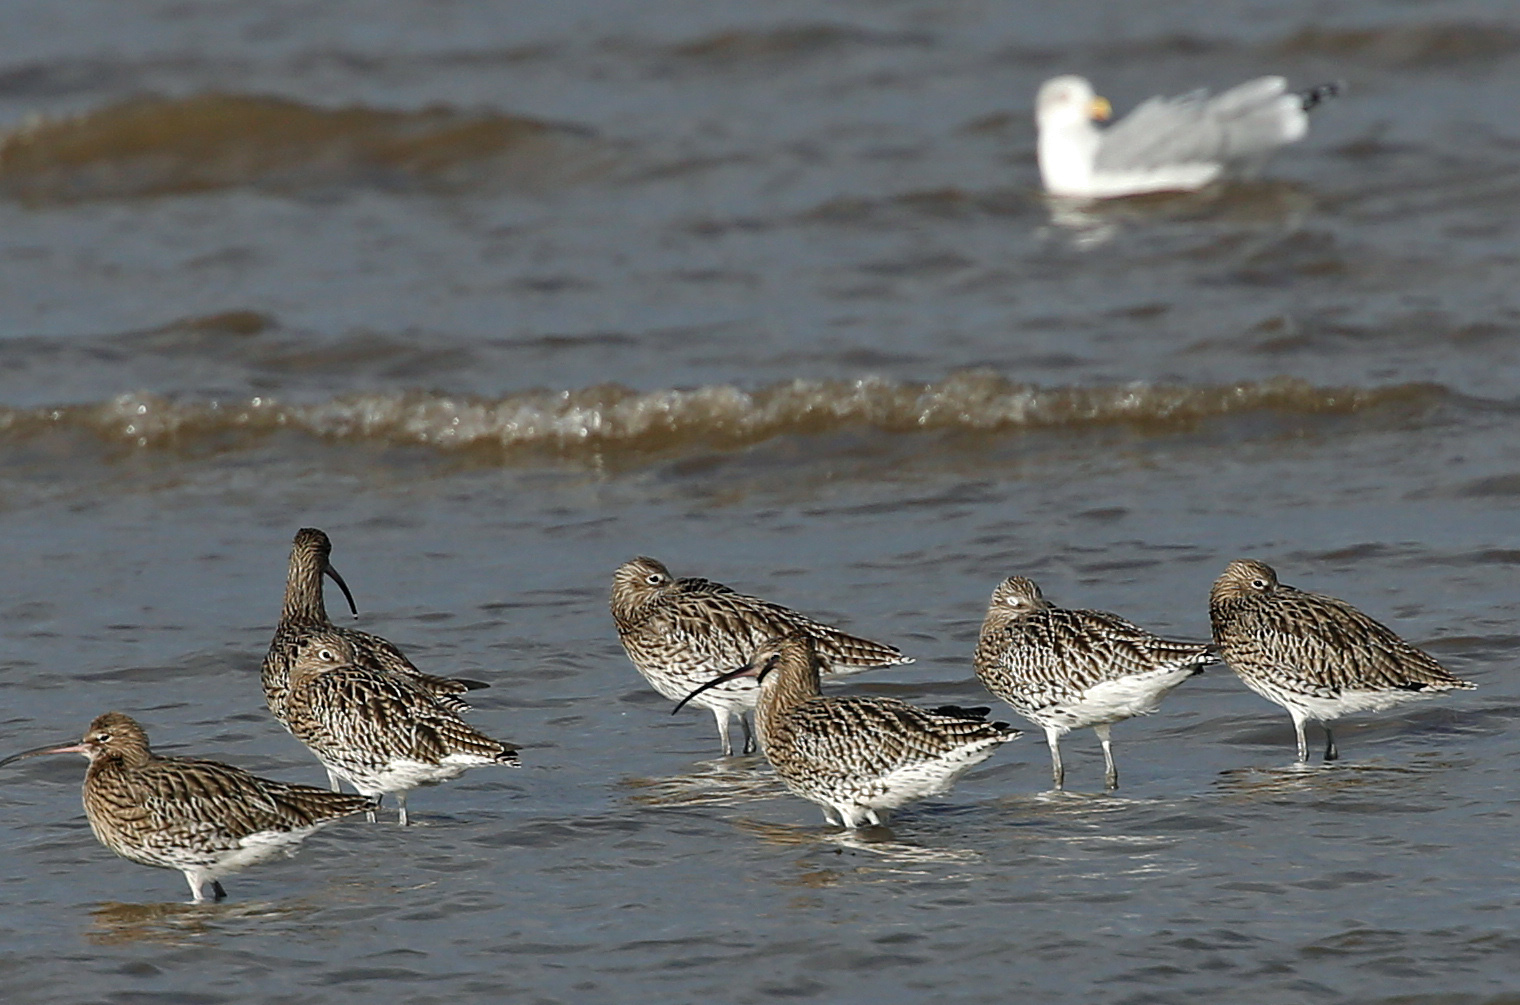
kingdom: Animalia
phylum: Chordata
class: Aves
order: Charadriiformes
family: Scolopacidae
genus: Numenius
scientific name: Numenius arquata
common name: Eurasian curlew
